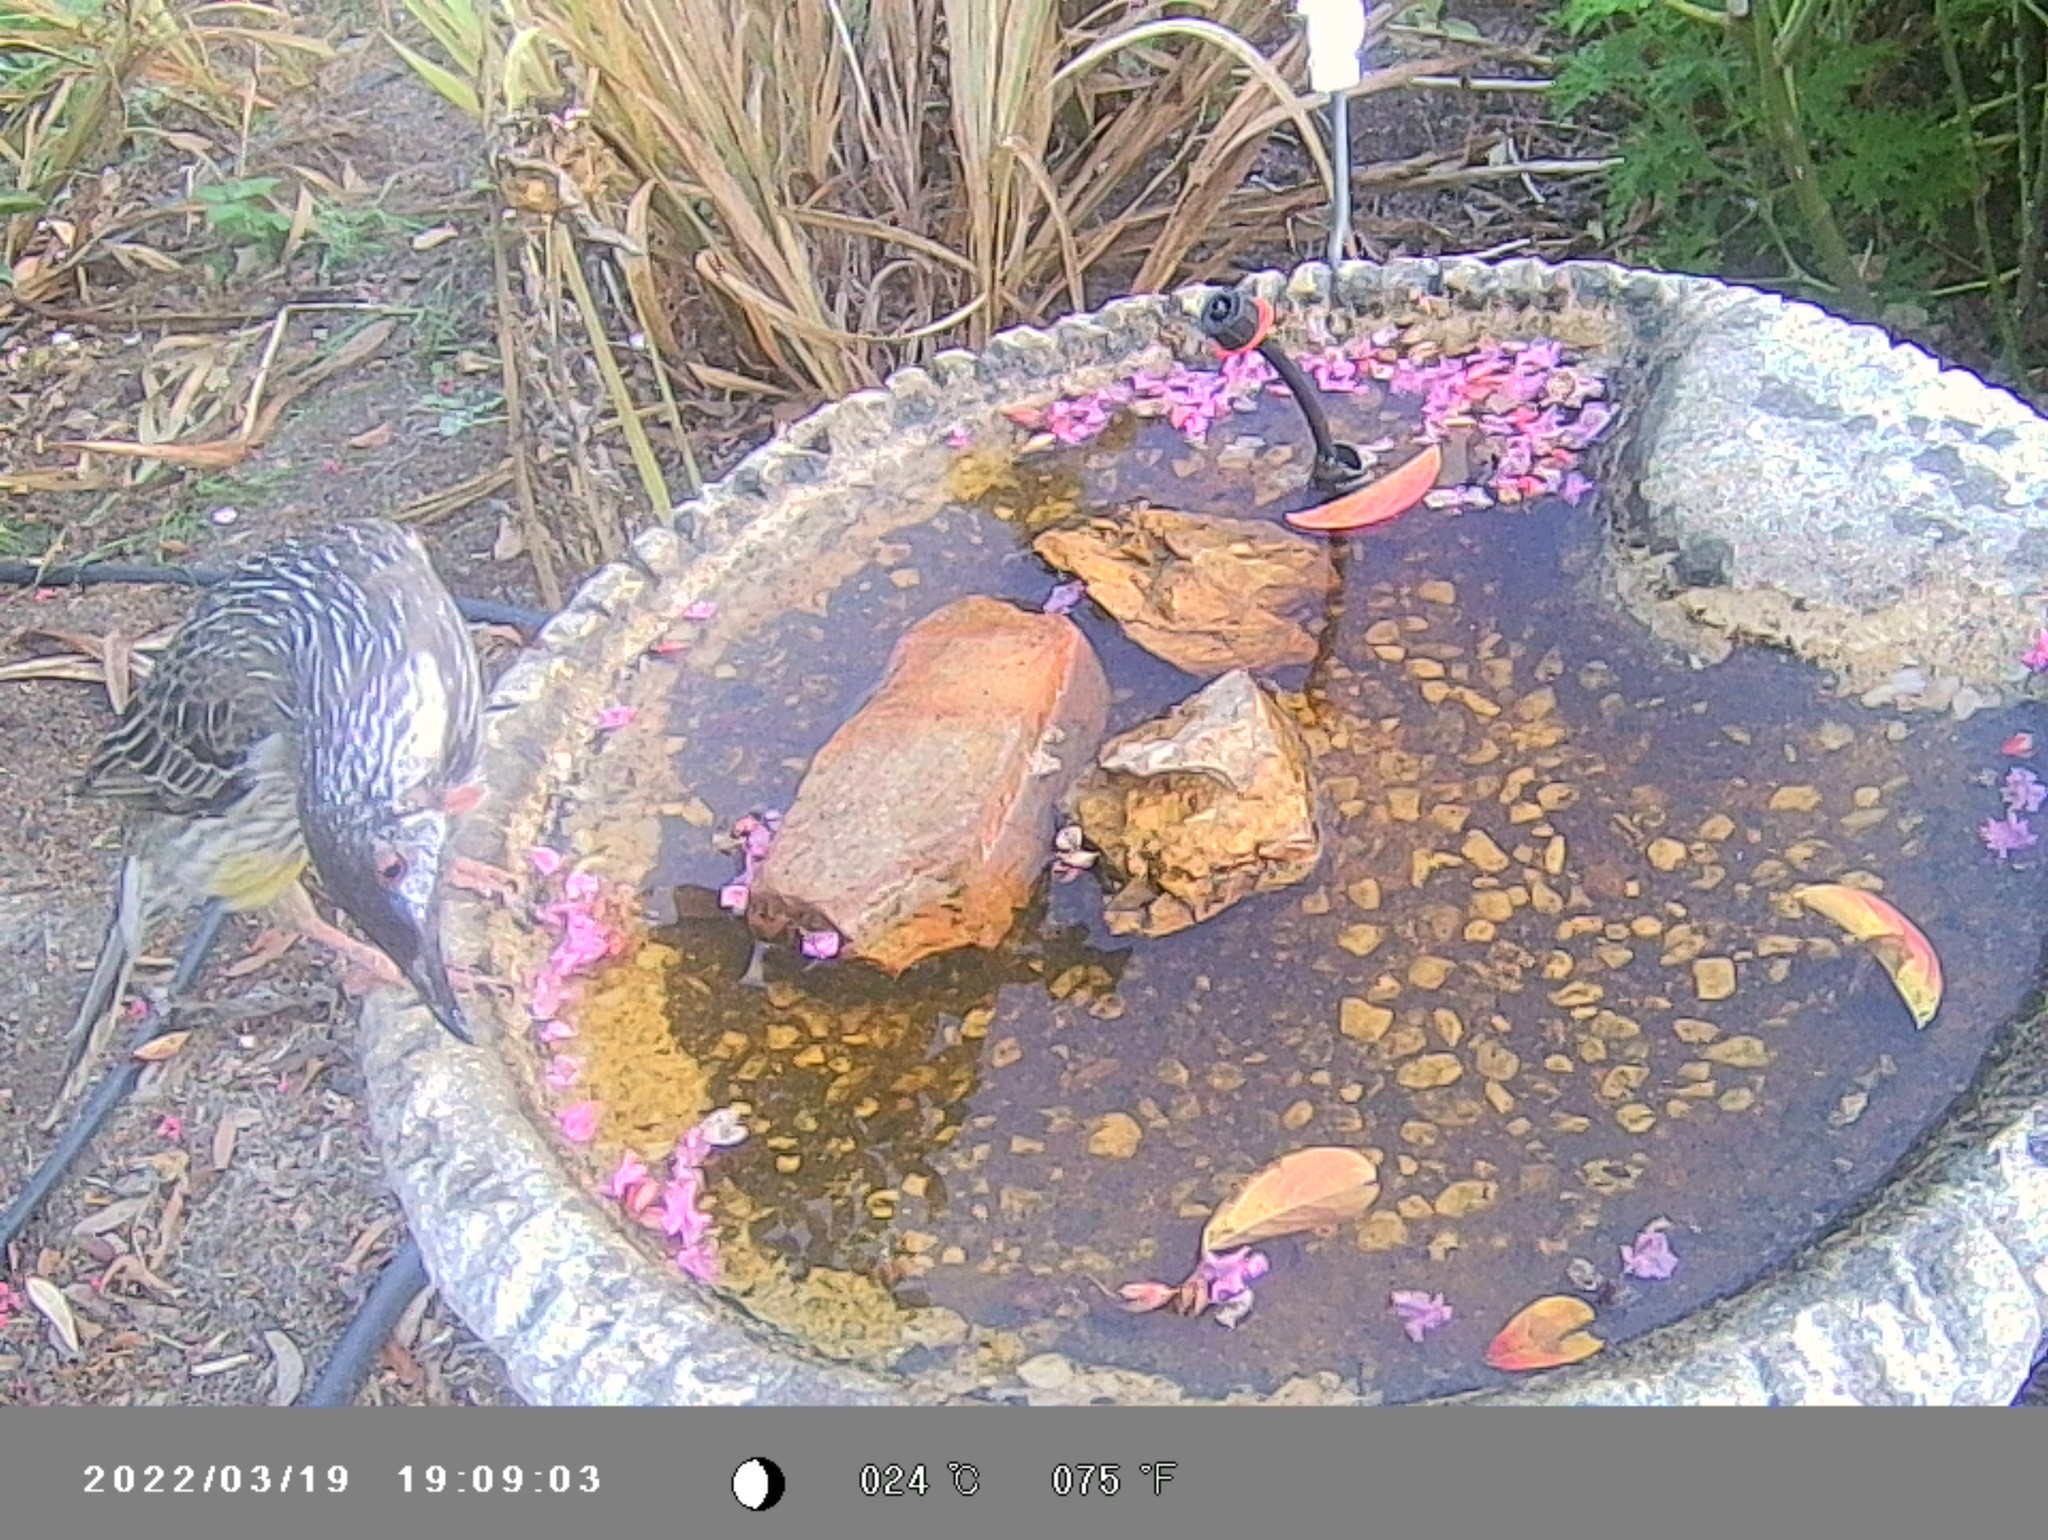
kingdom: Animalia
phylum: Chordata
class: Aves
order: Passeriformes
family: Meliphagidae
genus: Anthochaera
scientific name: Anthochaera carunculata
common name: Red wattlebird
